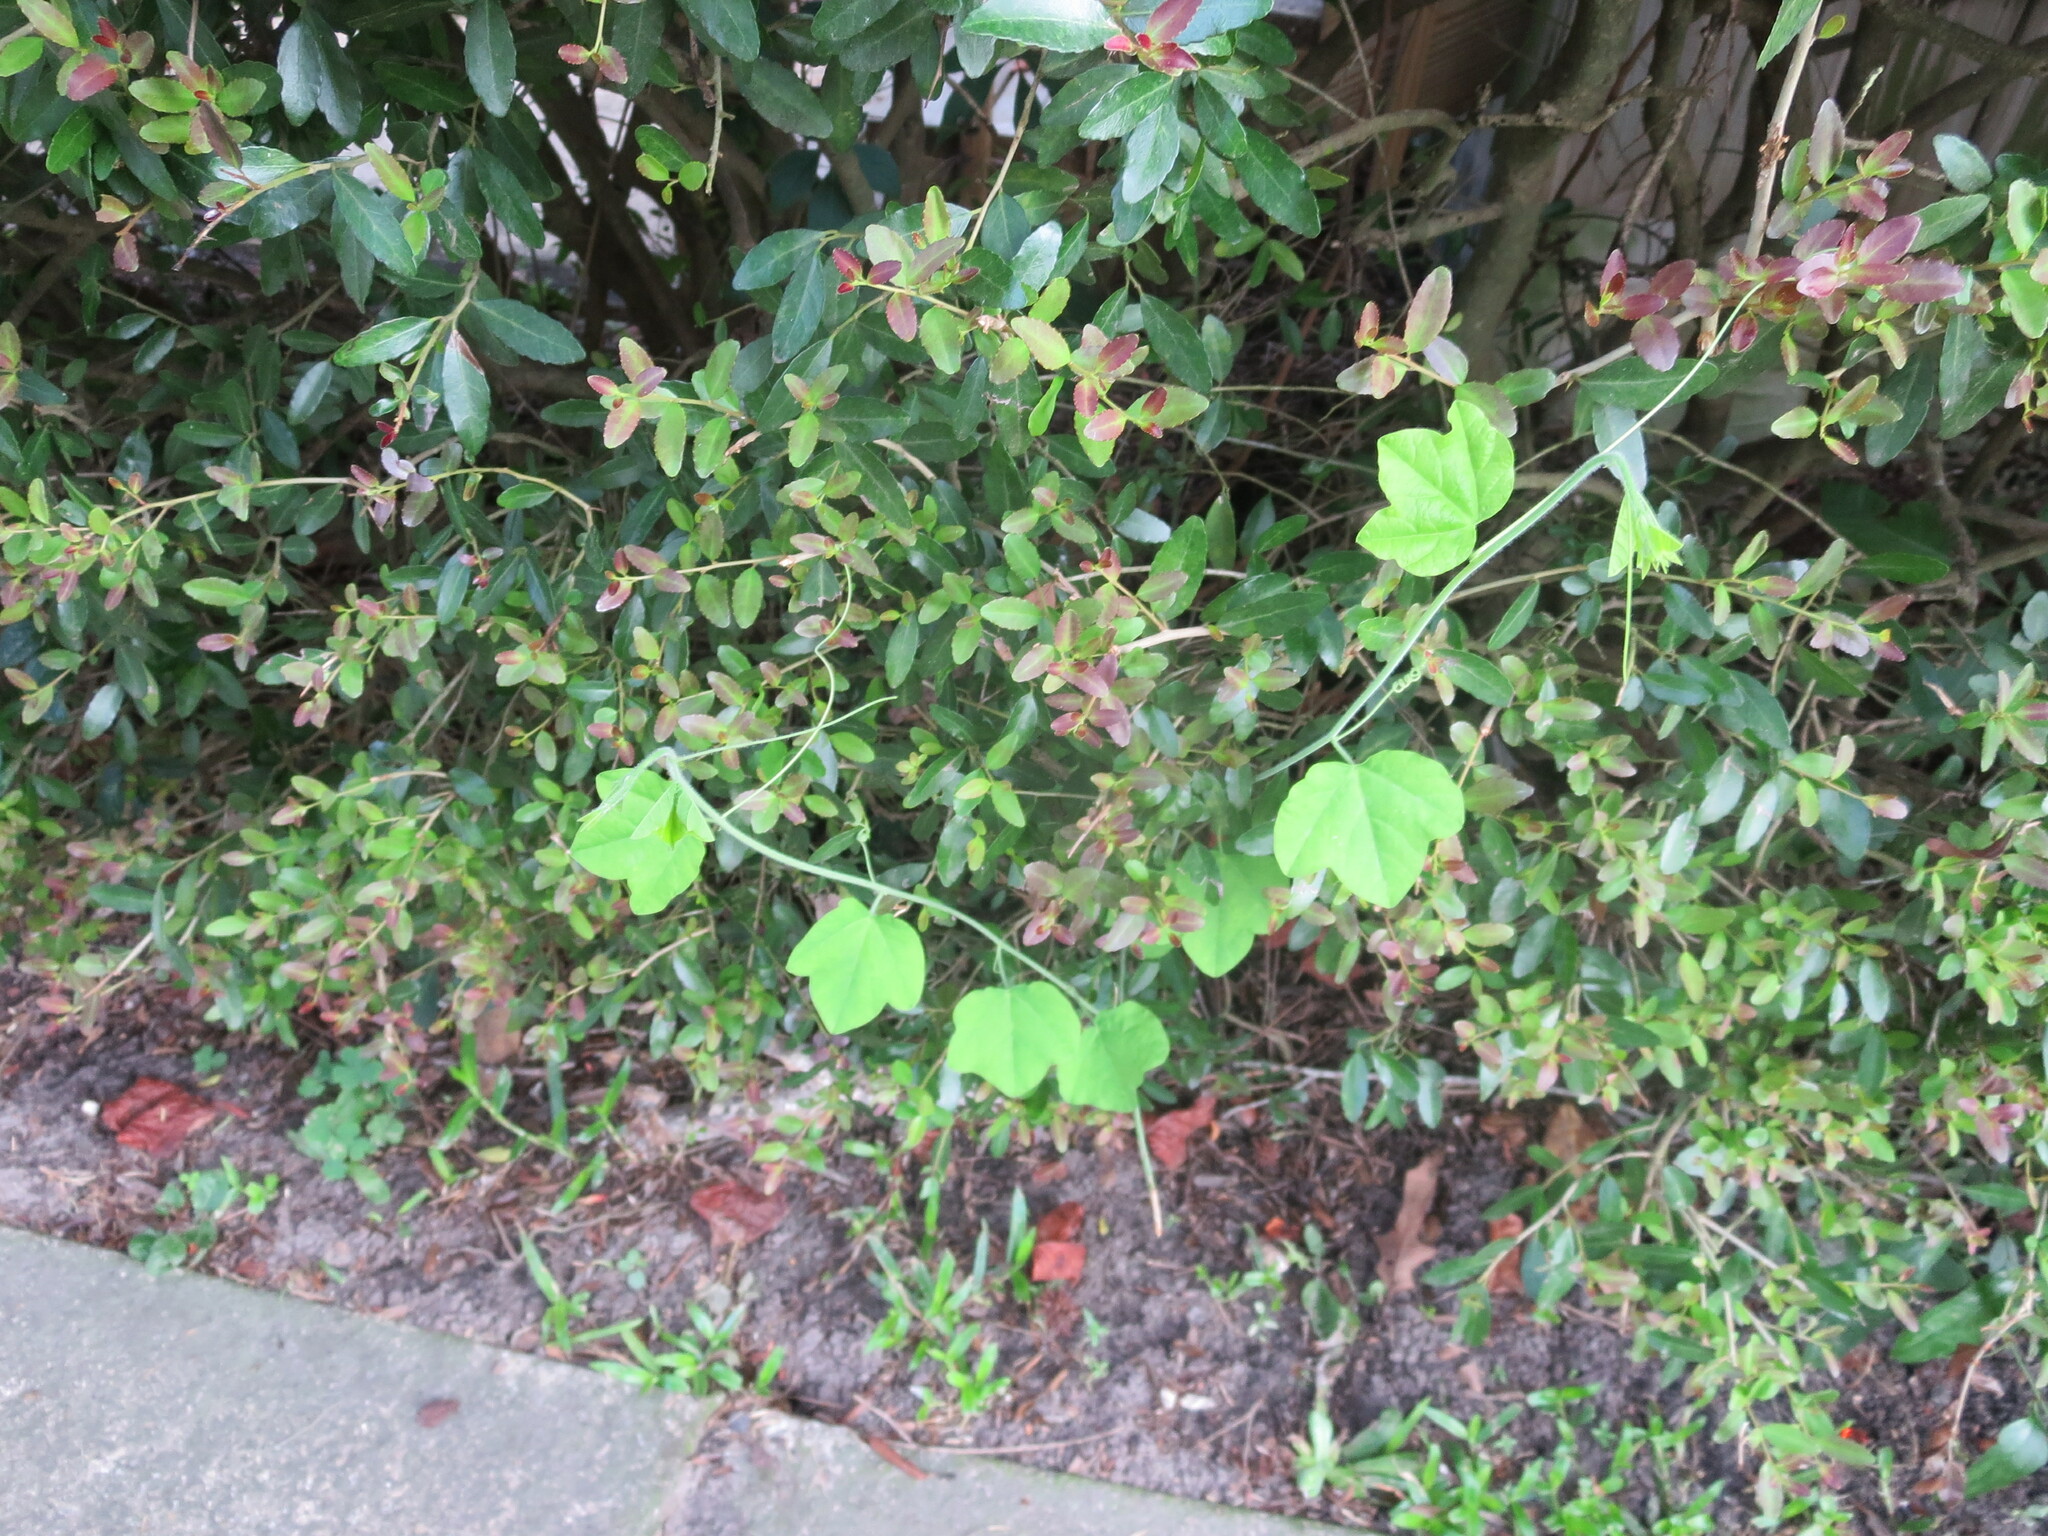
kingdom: Plantae
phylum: Tracheophyta
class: Magnoliopsida
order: Malpighiales
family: Passifloraceae
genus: Passiflora
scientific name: Passiflora lutea
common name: Yellow passionflower
